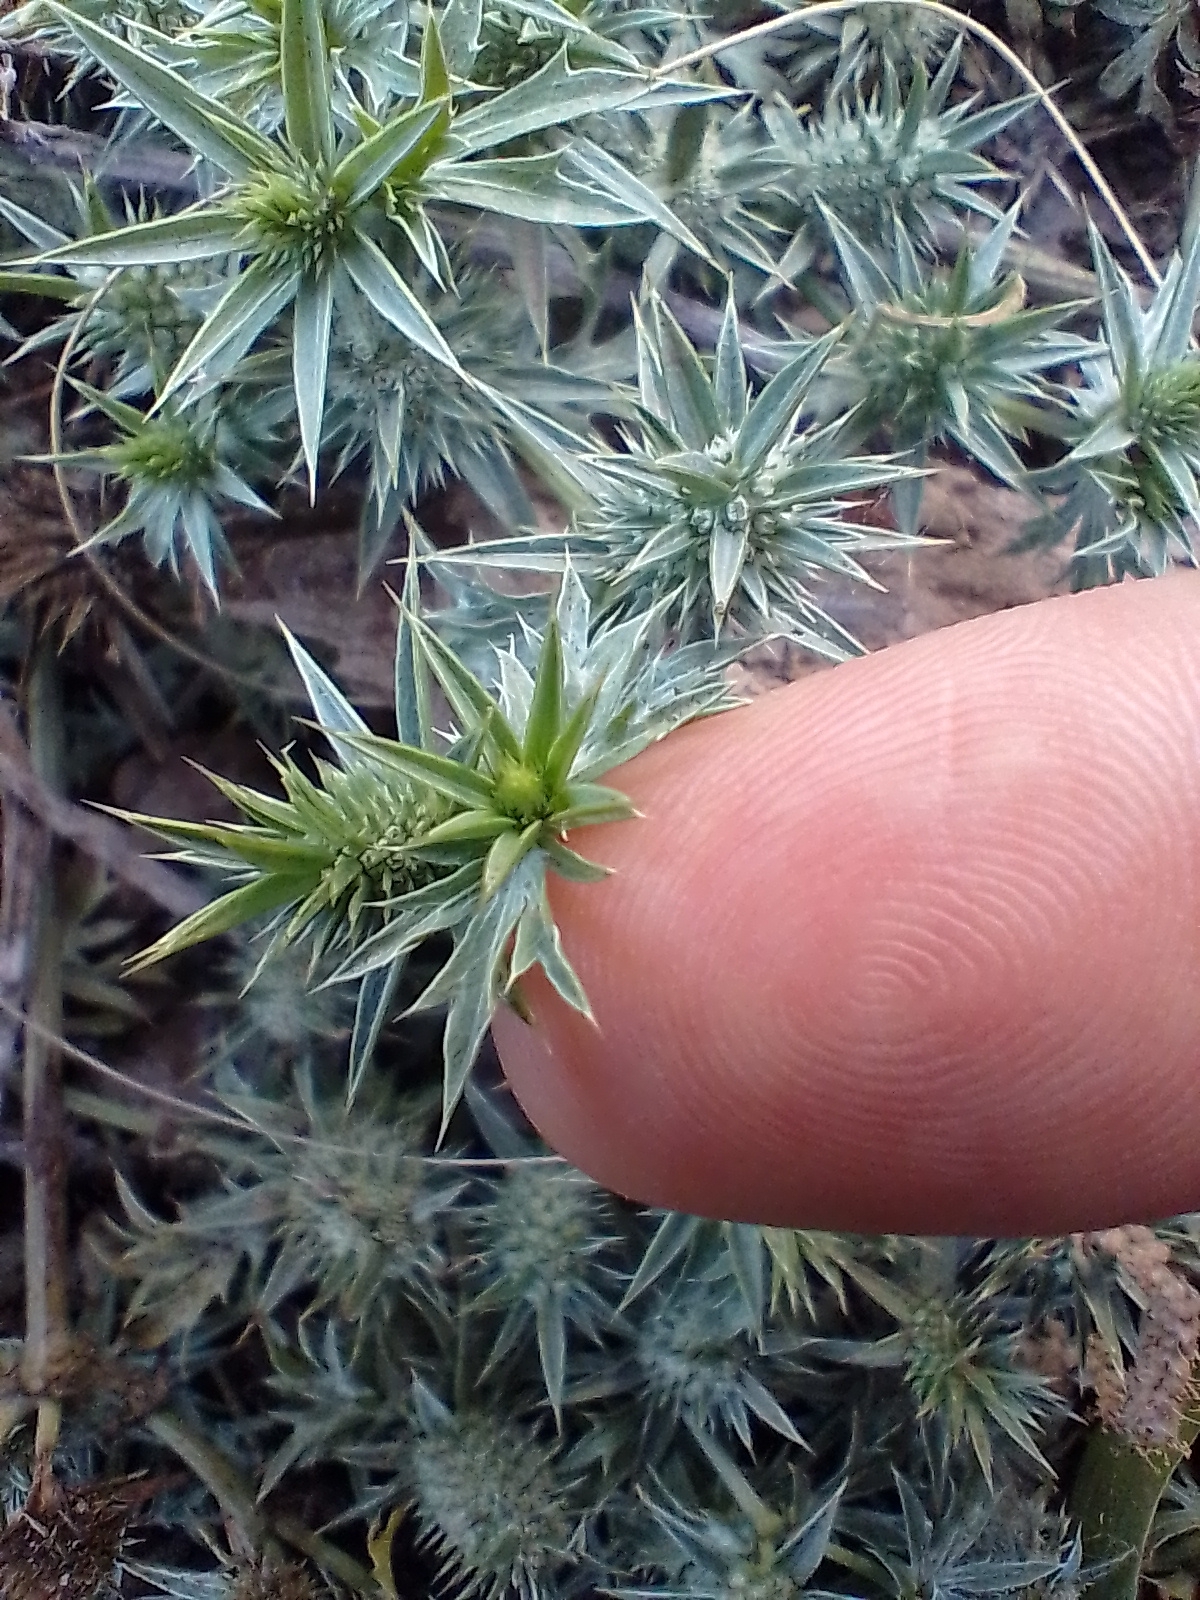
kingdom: Plantae
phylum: Tracheophyta
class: Magnoliopsida
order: Apiales
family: Apiaceae
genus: Eryngium
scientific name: Eryngium nasturtiifolium
